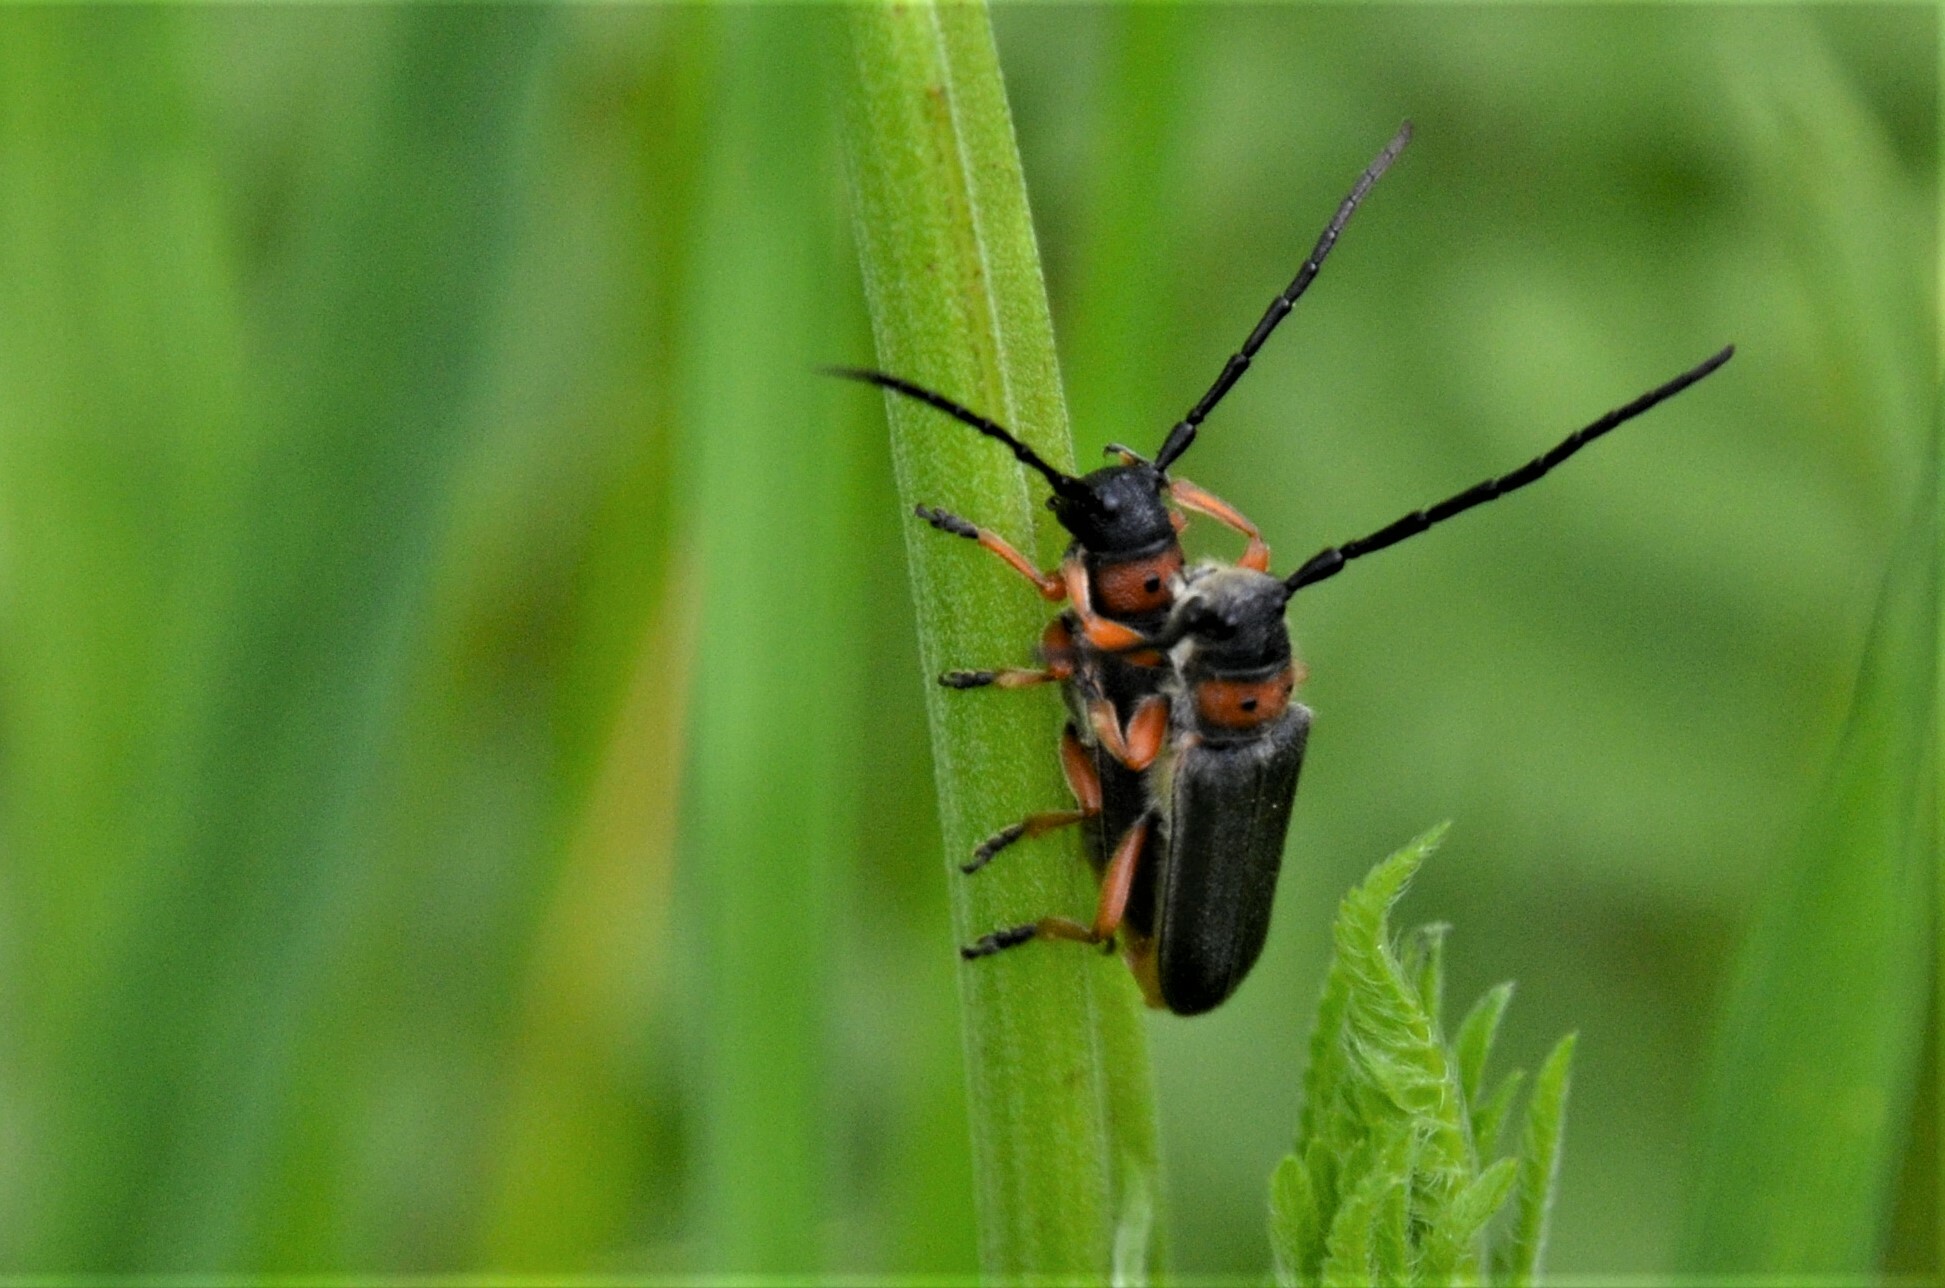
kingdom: Animalia
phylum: Arthropoda
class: Insecta
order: Coleoptera
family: Cerambycidae
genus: Phytoecia
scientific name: Phytoecia affinis
